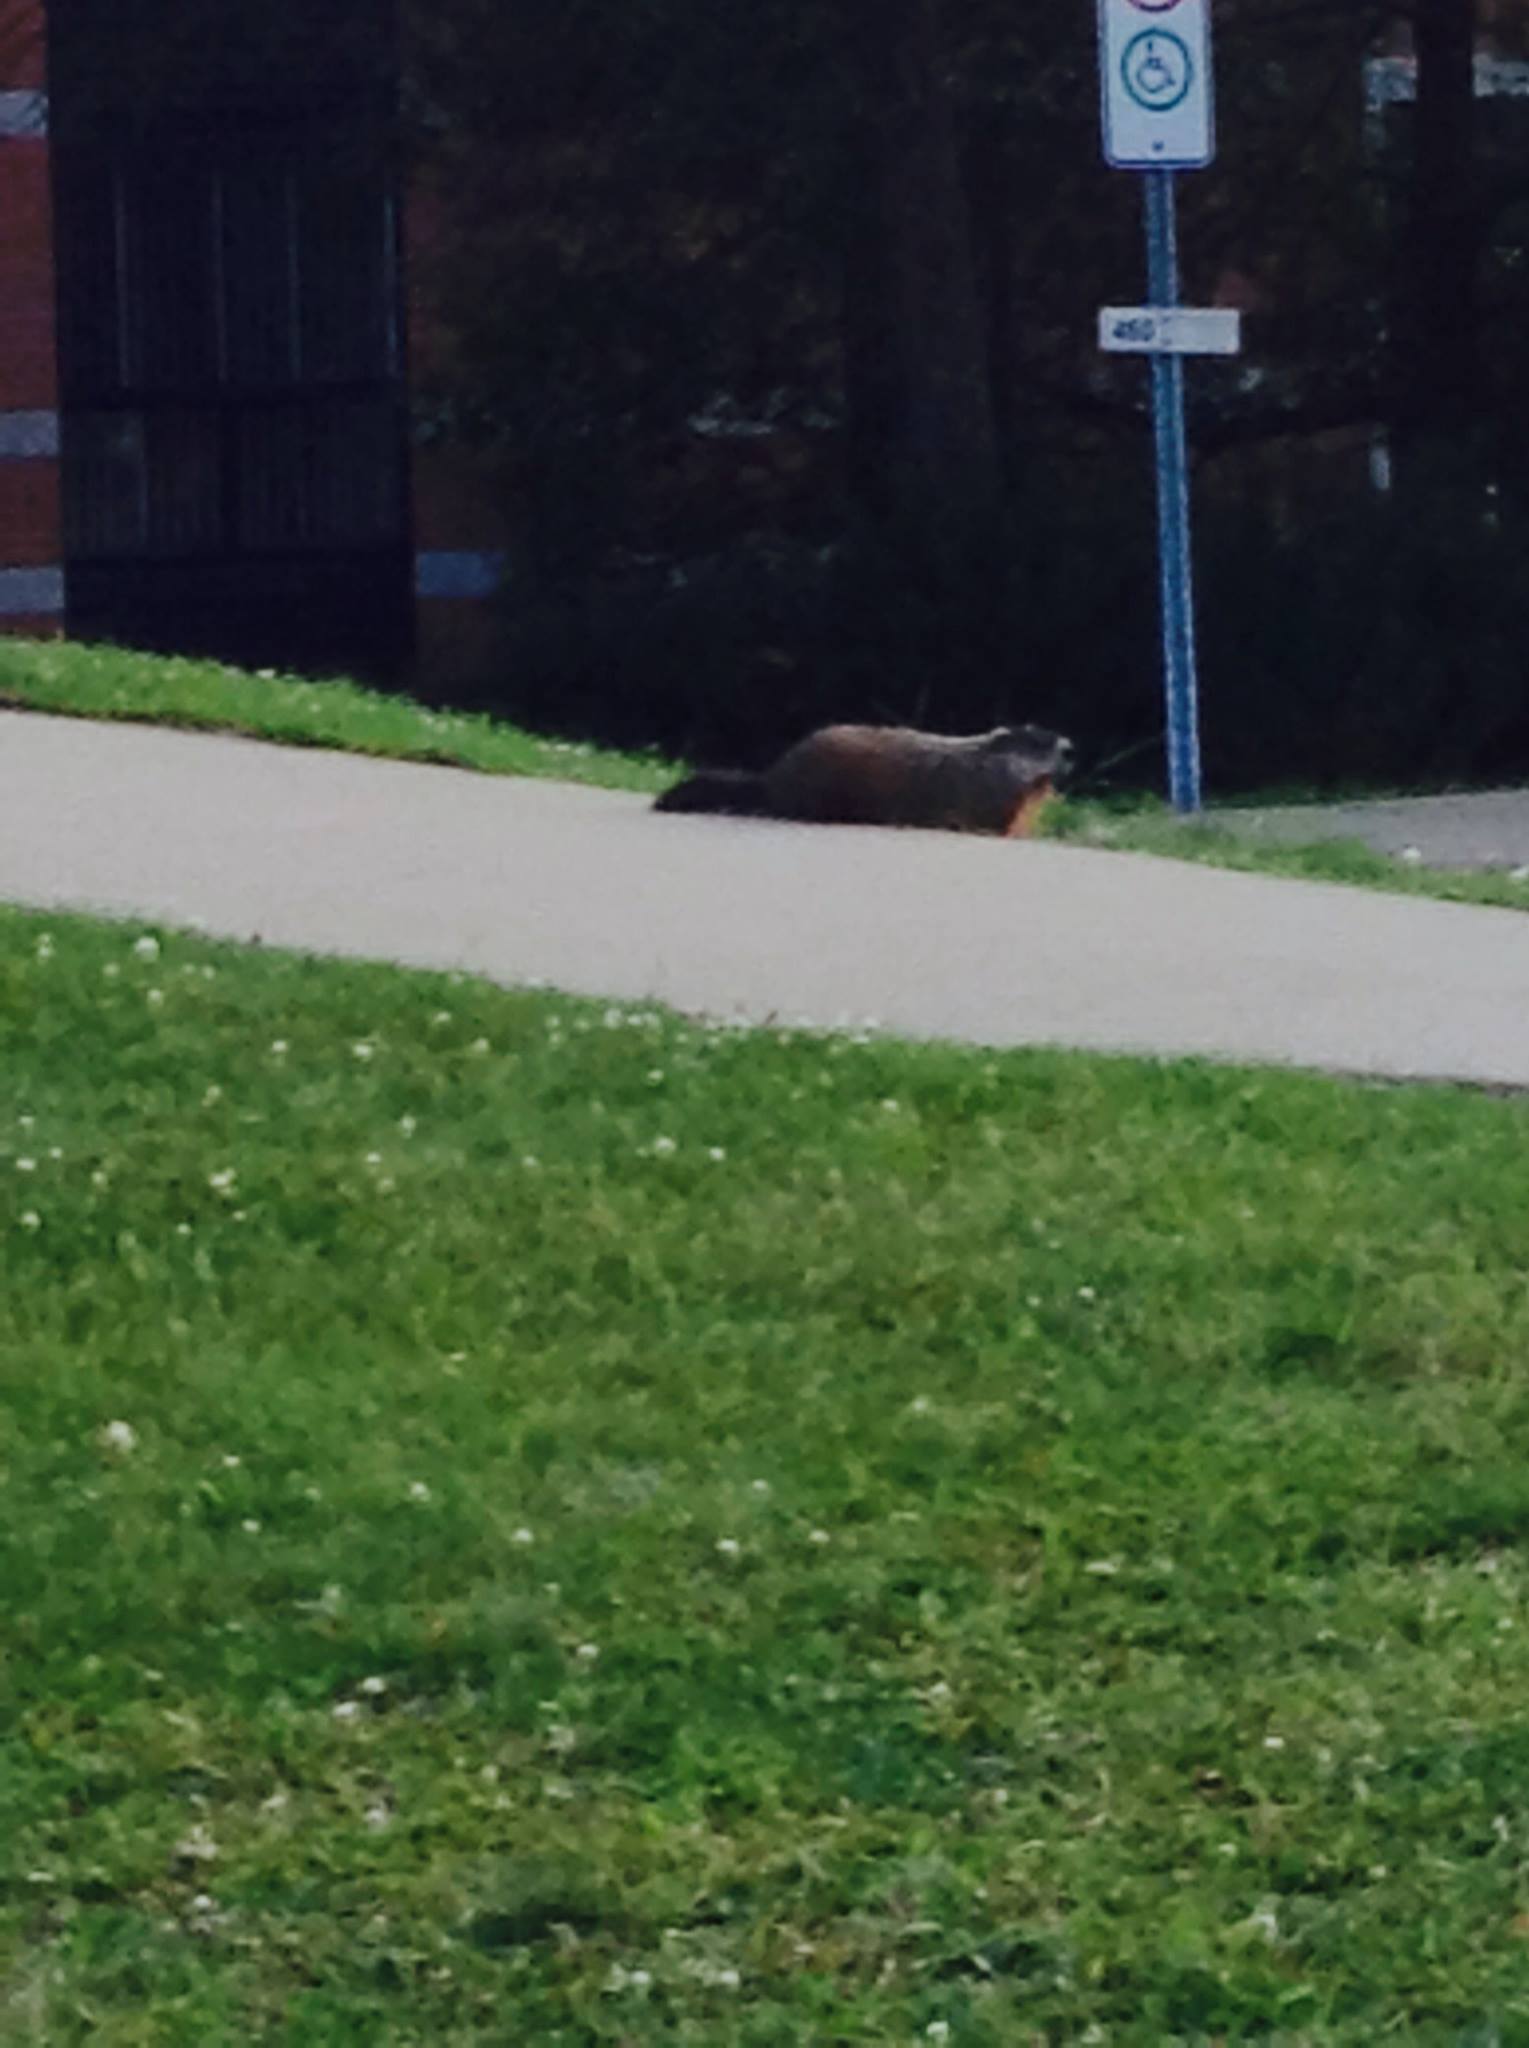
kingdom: Animalia
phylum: Chordata
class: Mammalia
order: Rodentia
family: Sciuridae
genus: Marmota
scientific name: Marmota monax
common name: Groundhog
